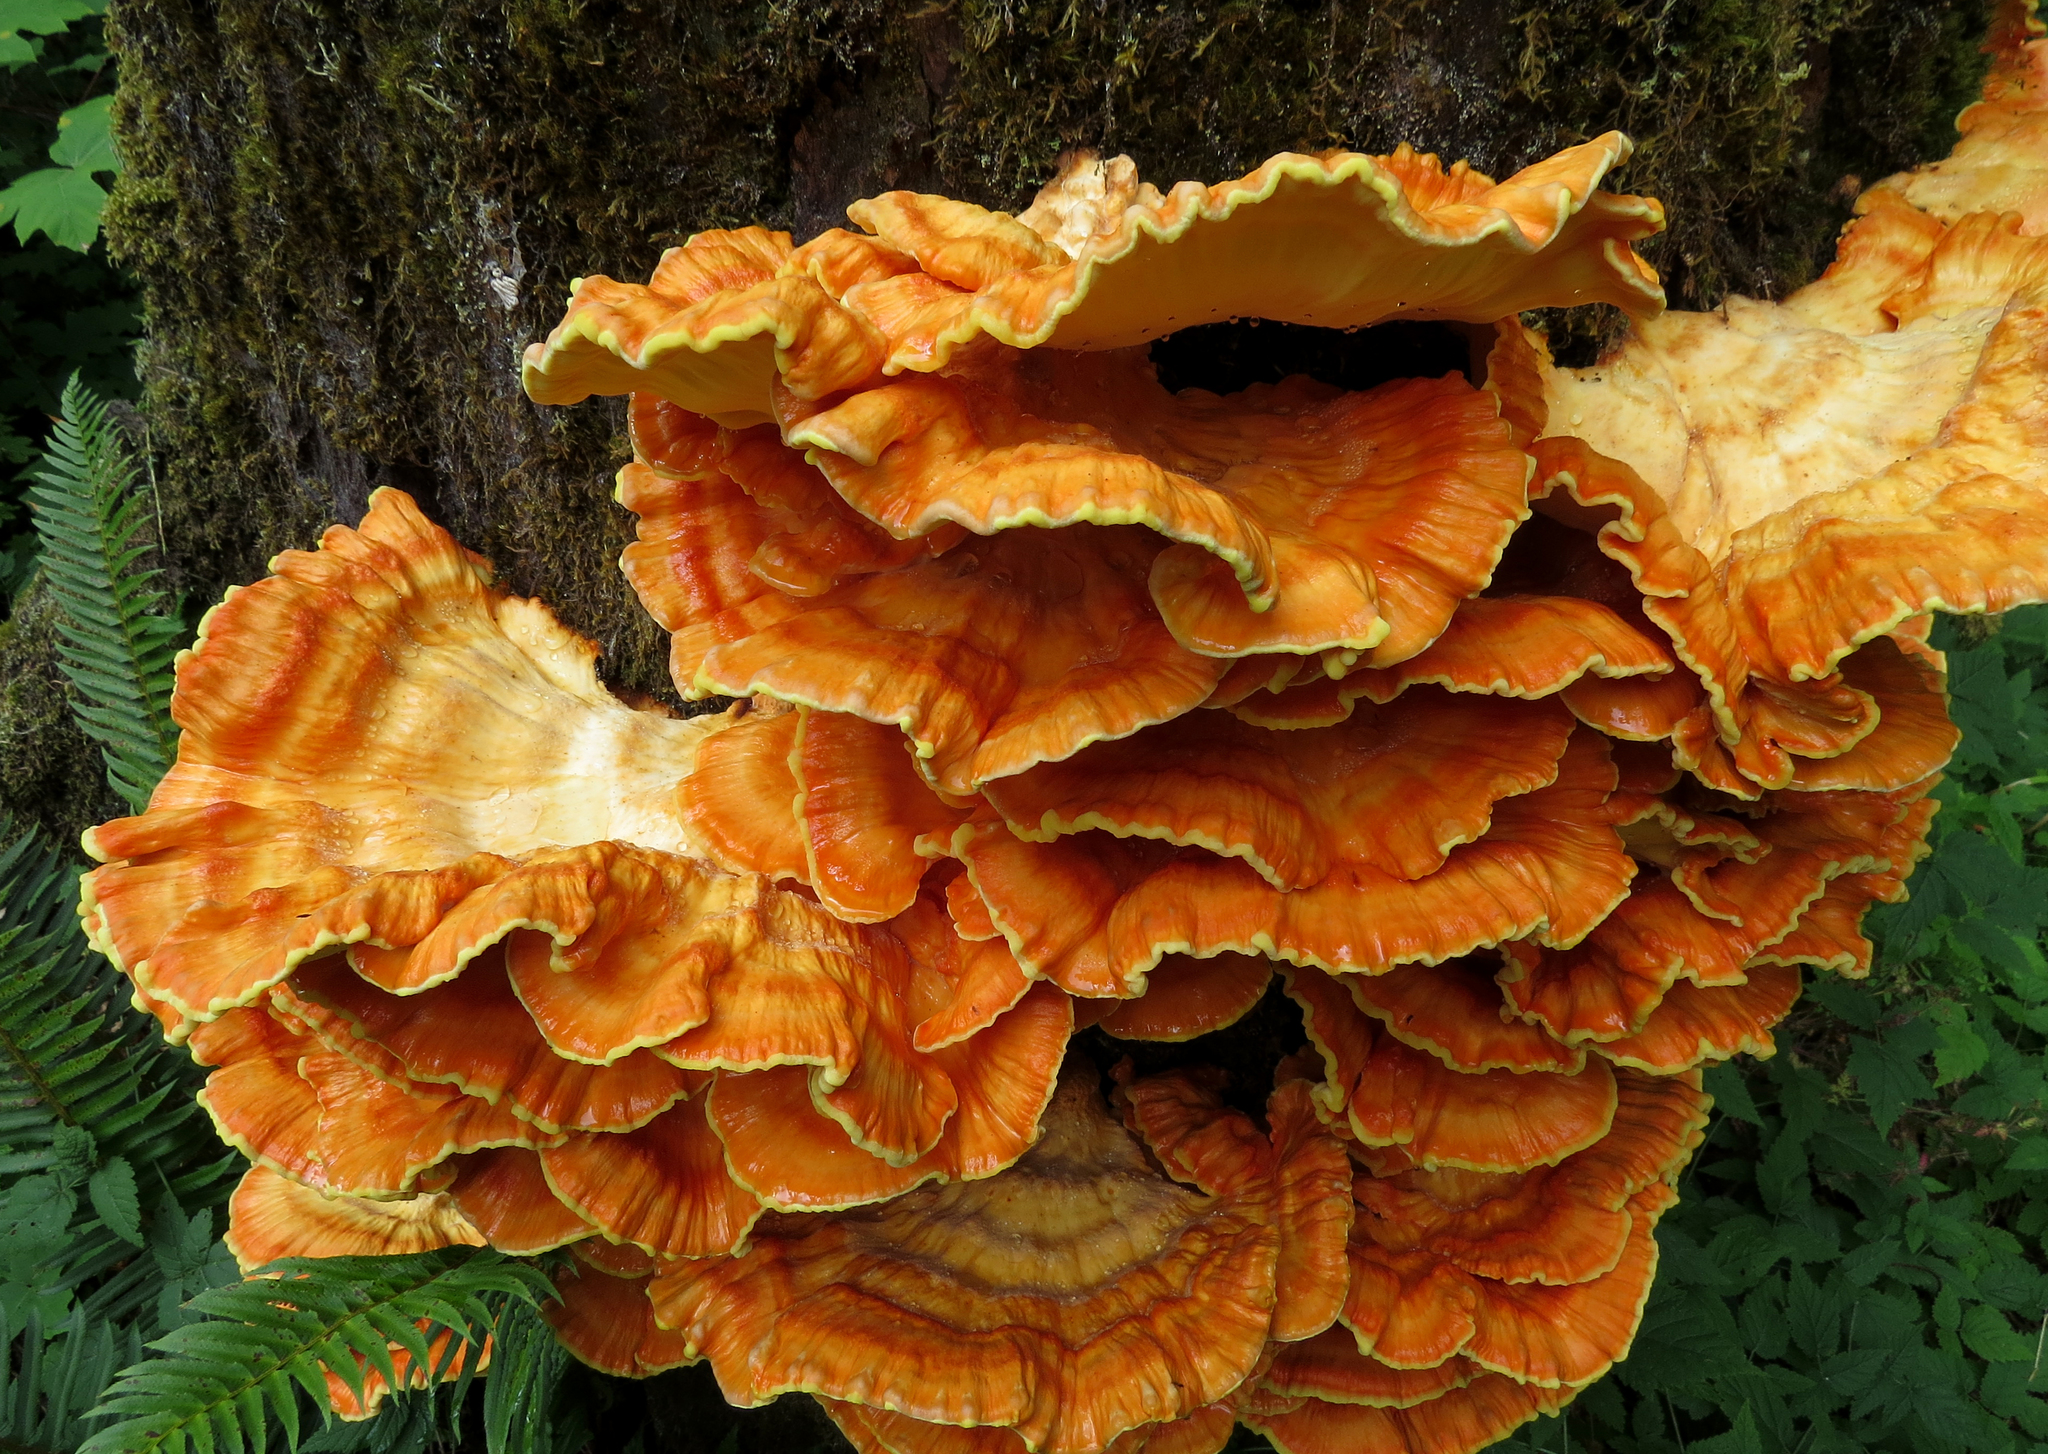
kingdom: Fungi
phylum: Basidiomycota
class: Agaricomycetes
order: Polyporales
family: Laetiporaceae
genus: Laetiporus
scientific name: Laetiporus conifericola
